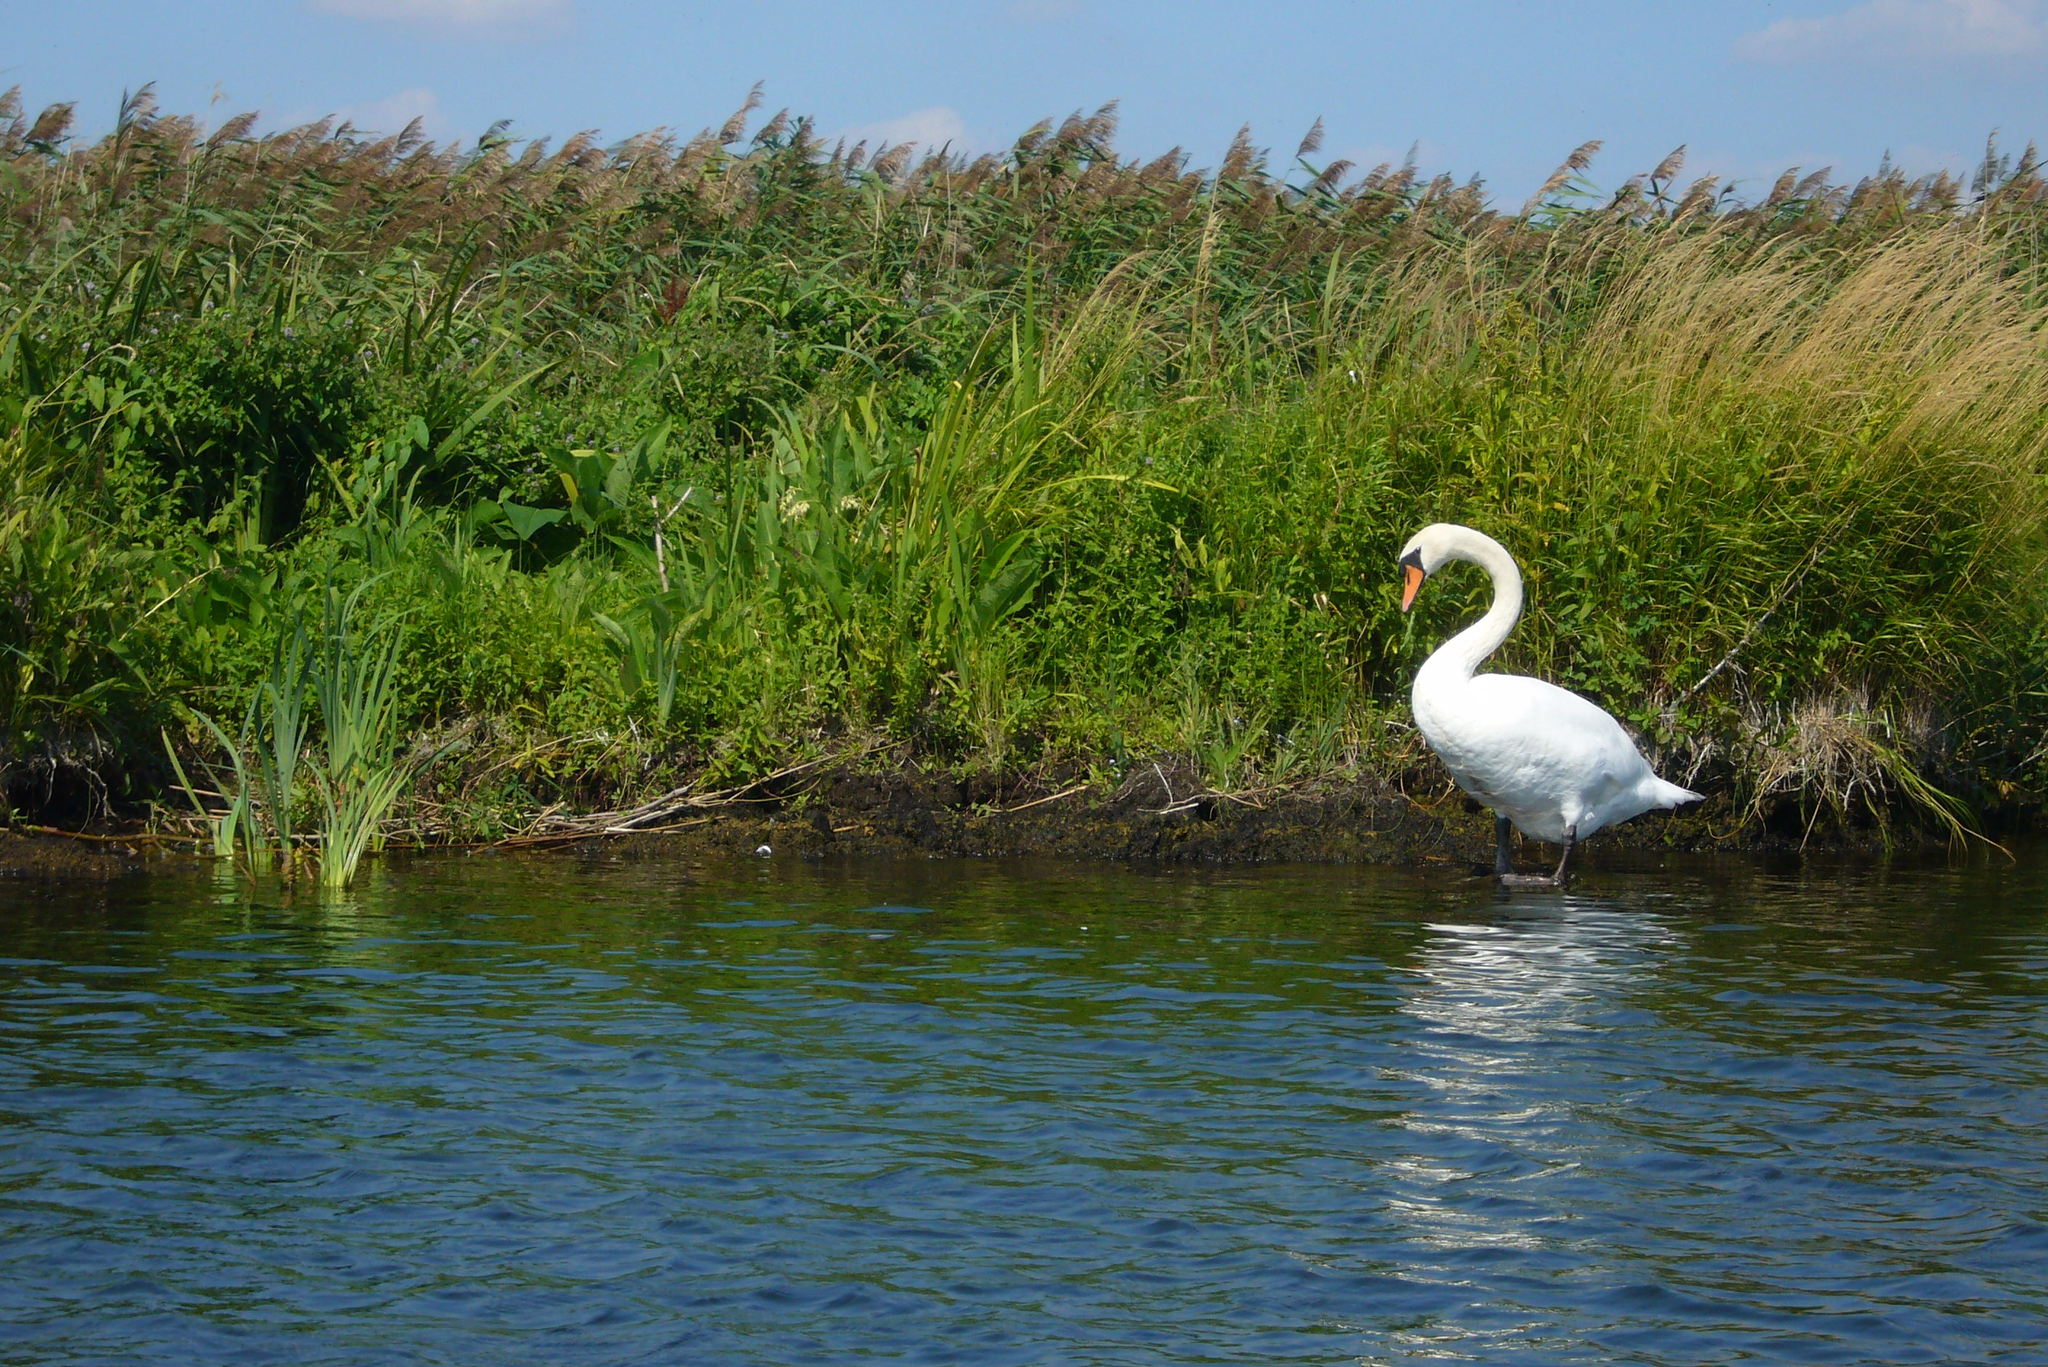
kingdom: Animalia
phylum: Chordata
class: Aves
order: Anseriformes
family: Anatidae
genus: Cygnus
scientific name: Cygnus olor
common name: Mute swan
